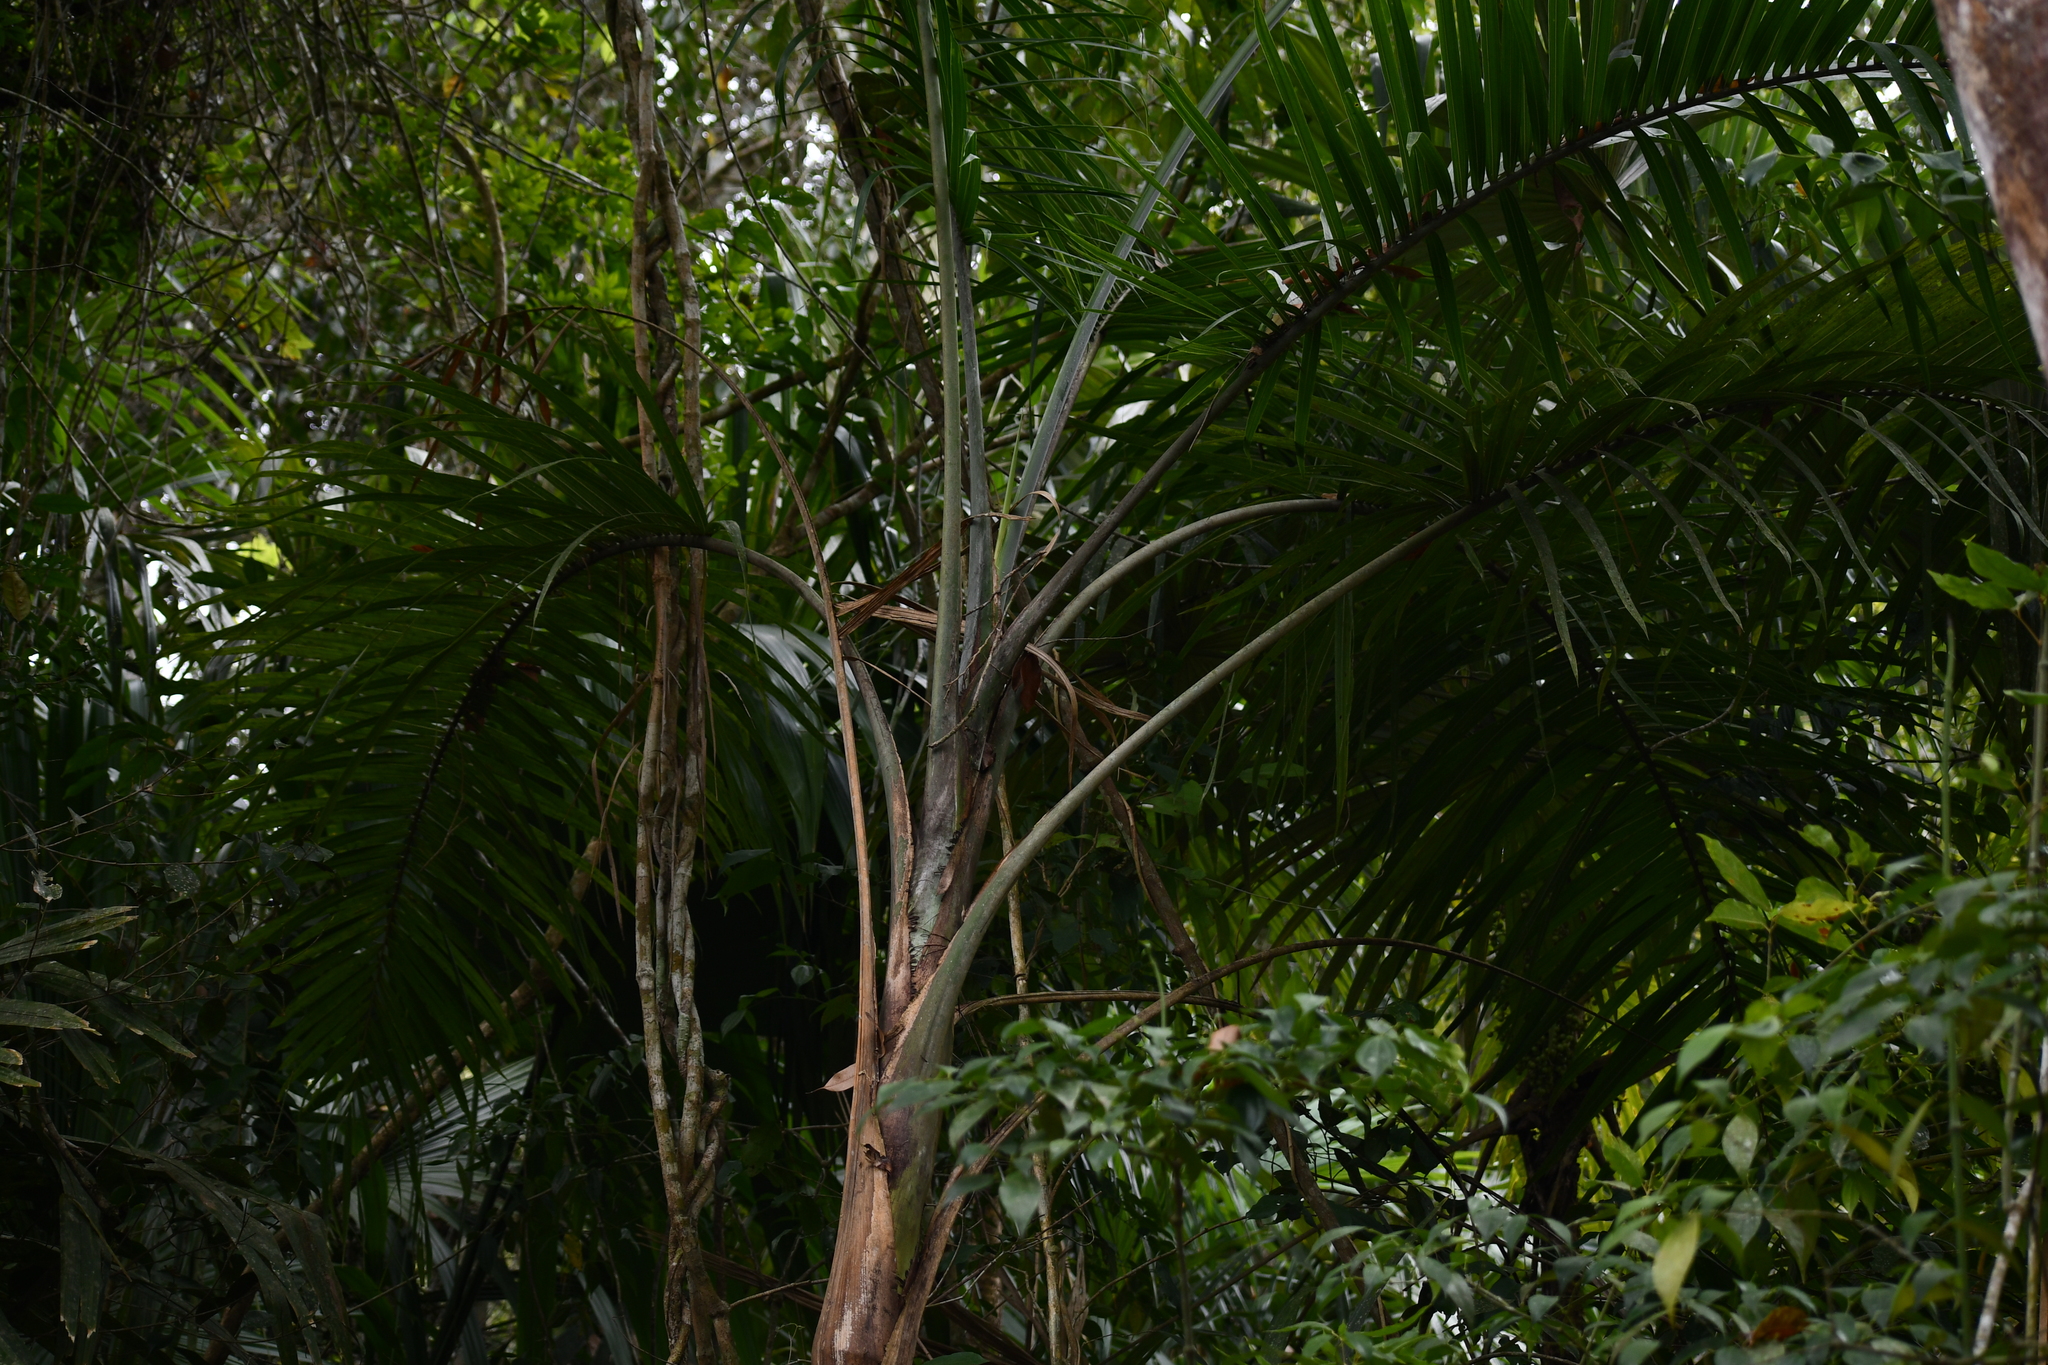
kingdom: Plantae
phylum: Tracheophyta
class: Liliopsida
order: Arecales
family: Arecaceae
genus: Gaussia
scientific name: Gaussia maya
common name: Maya palm
